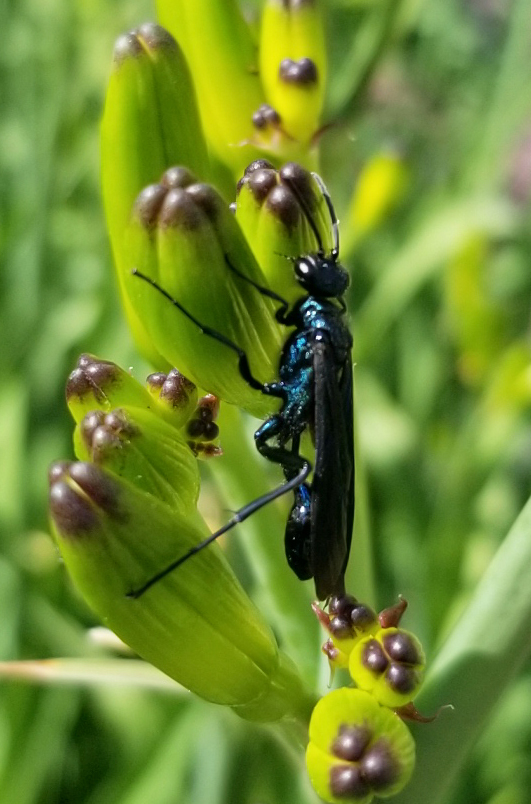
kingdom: Animalia
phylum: Arthropoda
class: Insecta
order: Hymenoptera
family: Sphecidae
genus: Chalybion
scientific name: Chalybion californicum
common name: Mud dauber
